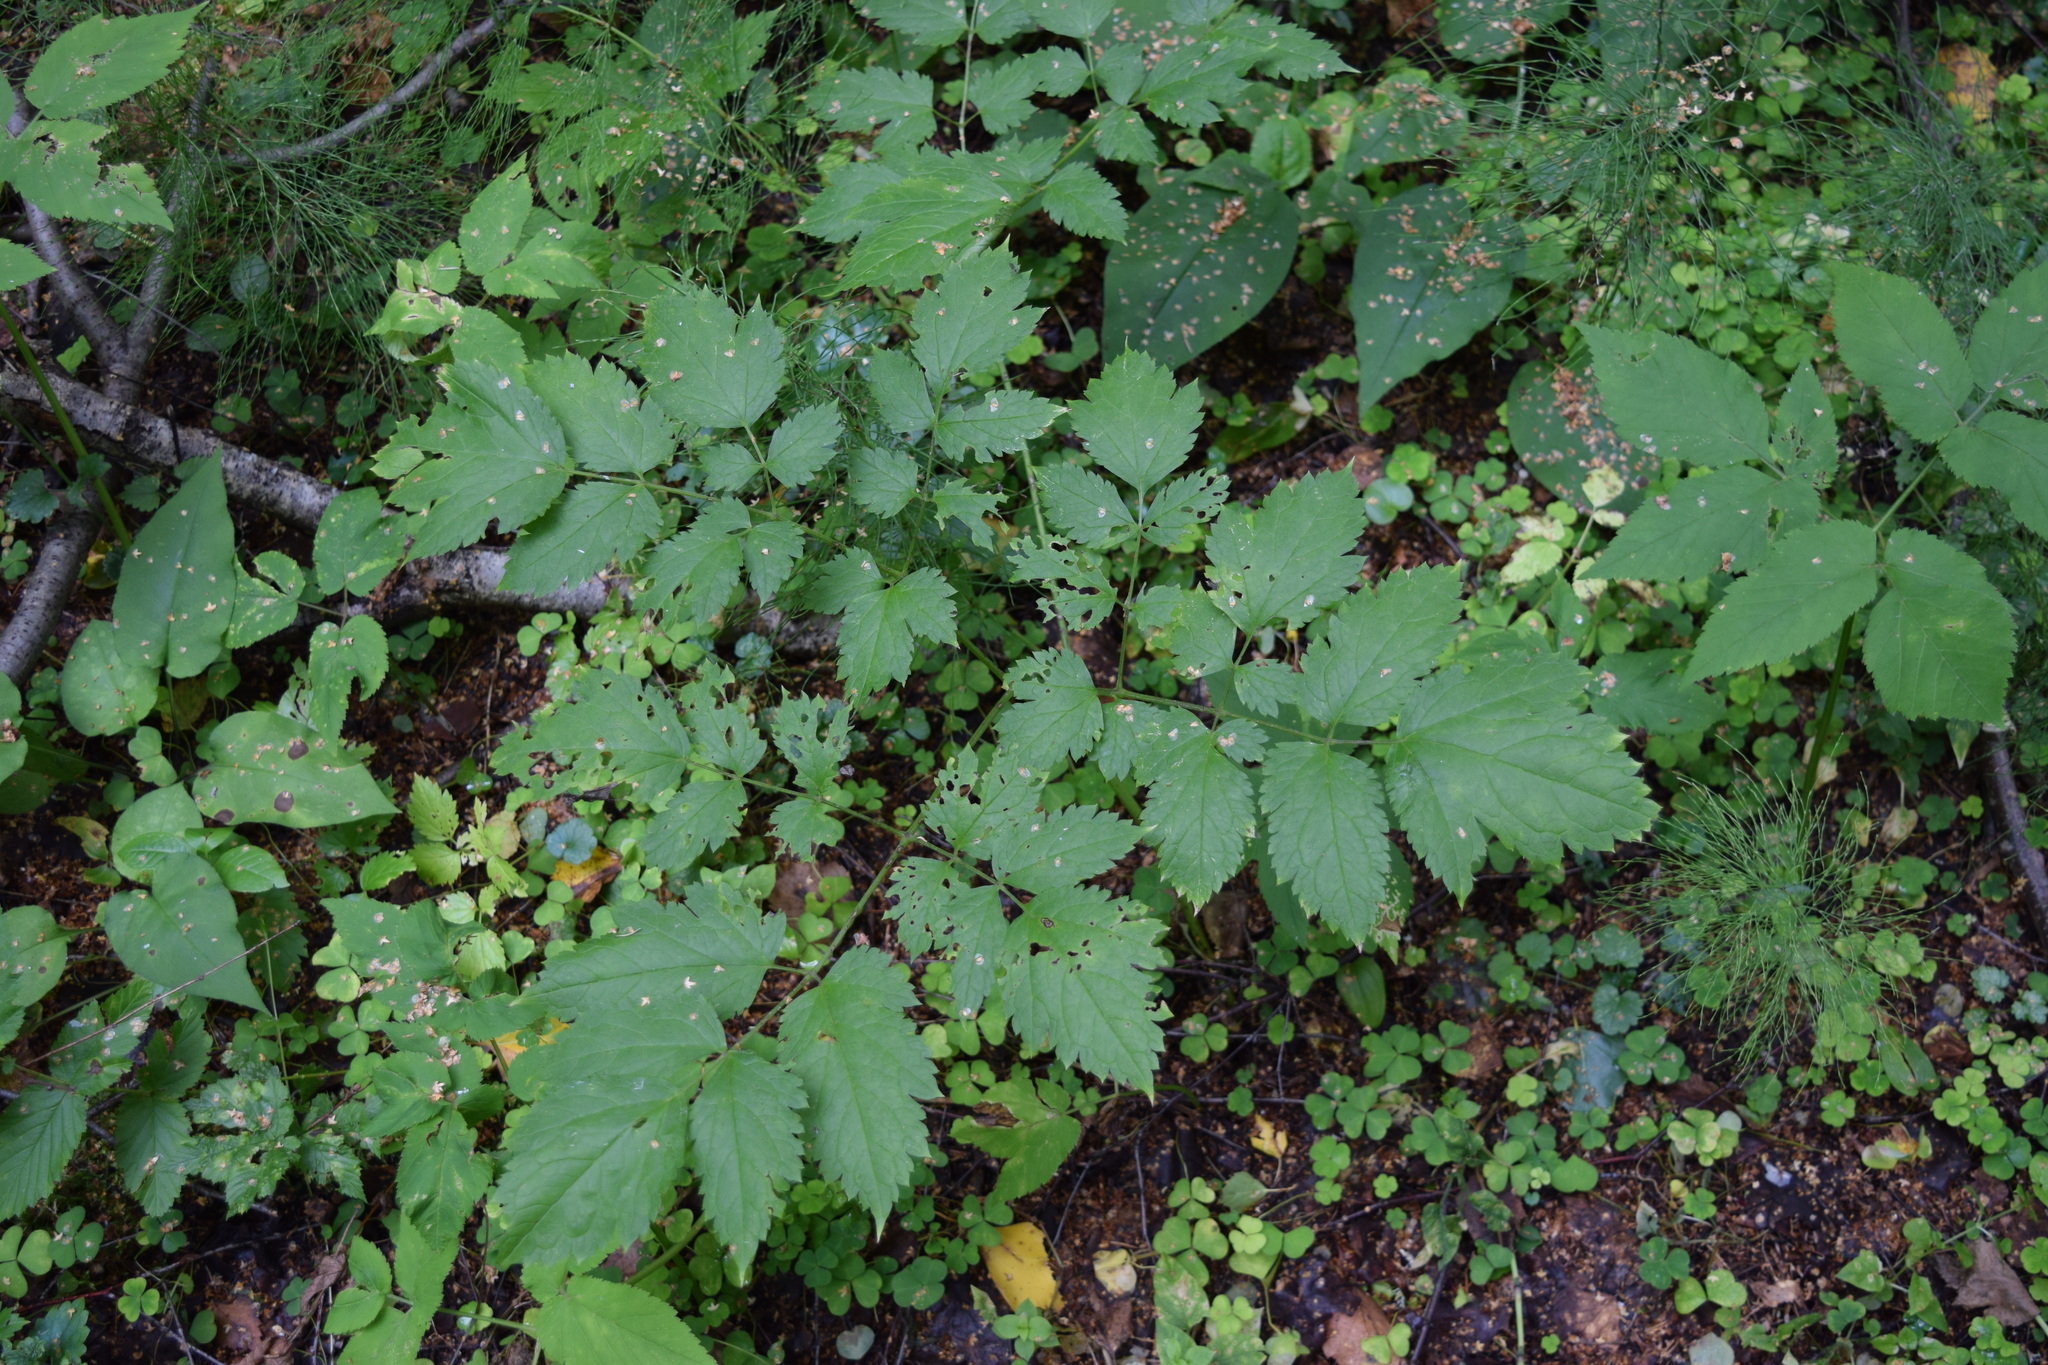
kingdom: Plantae
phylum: Tracheophyta
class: Magnoliopsida
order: Ranunculales
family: Ranunculaceae
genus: Actaea
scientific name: Actaea spicata
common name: Baneberry
